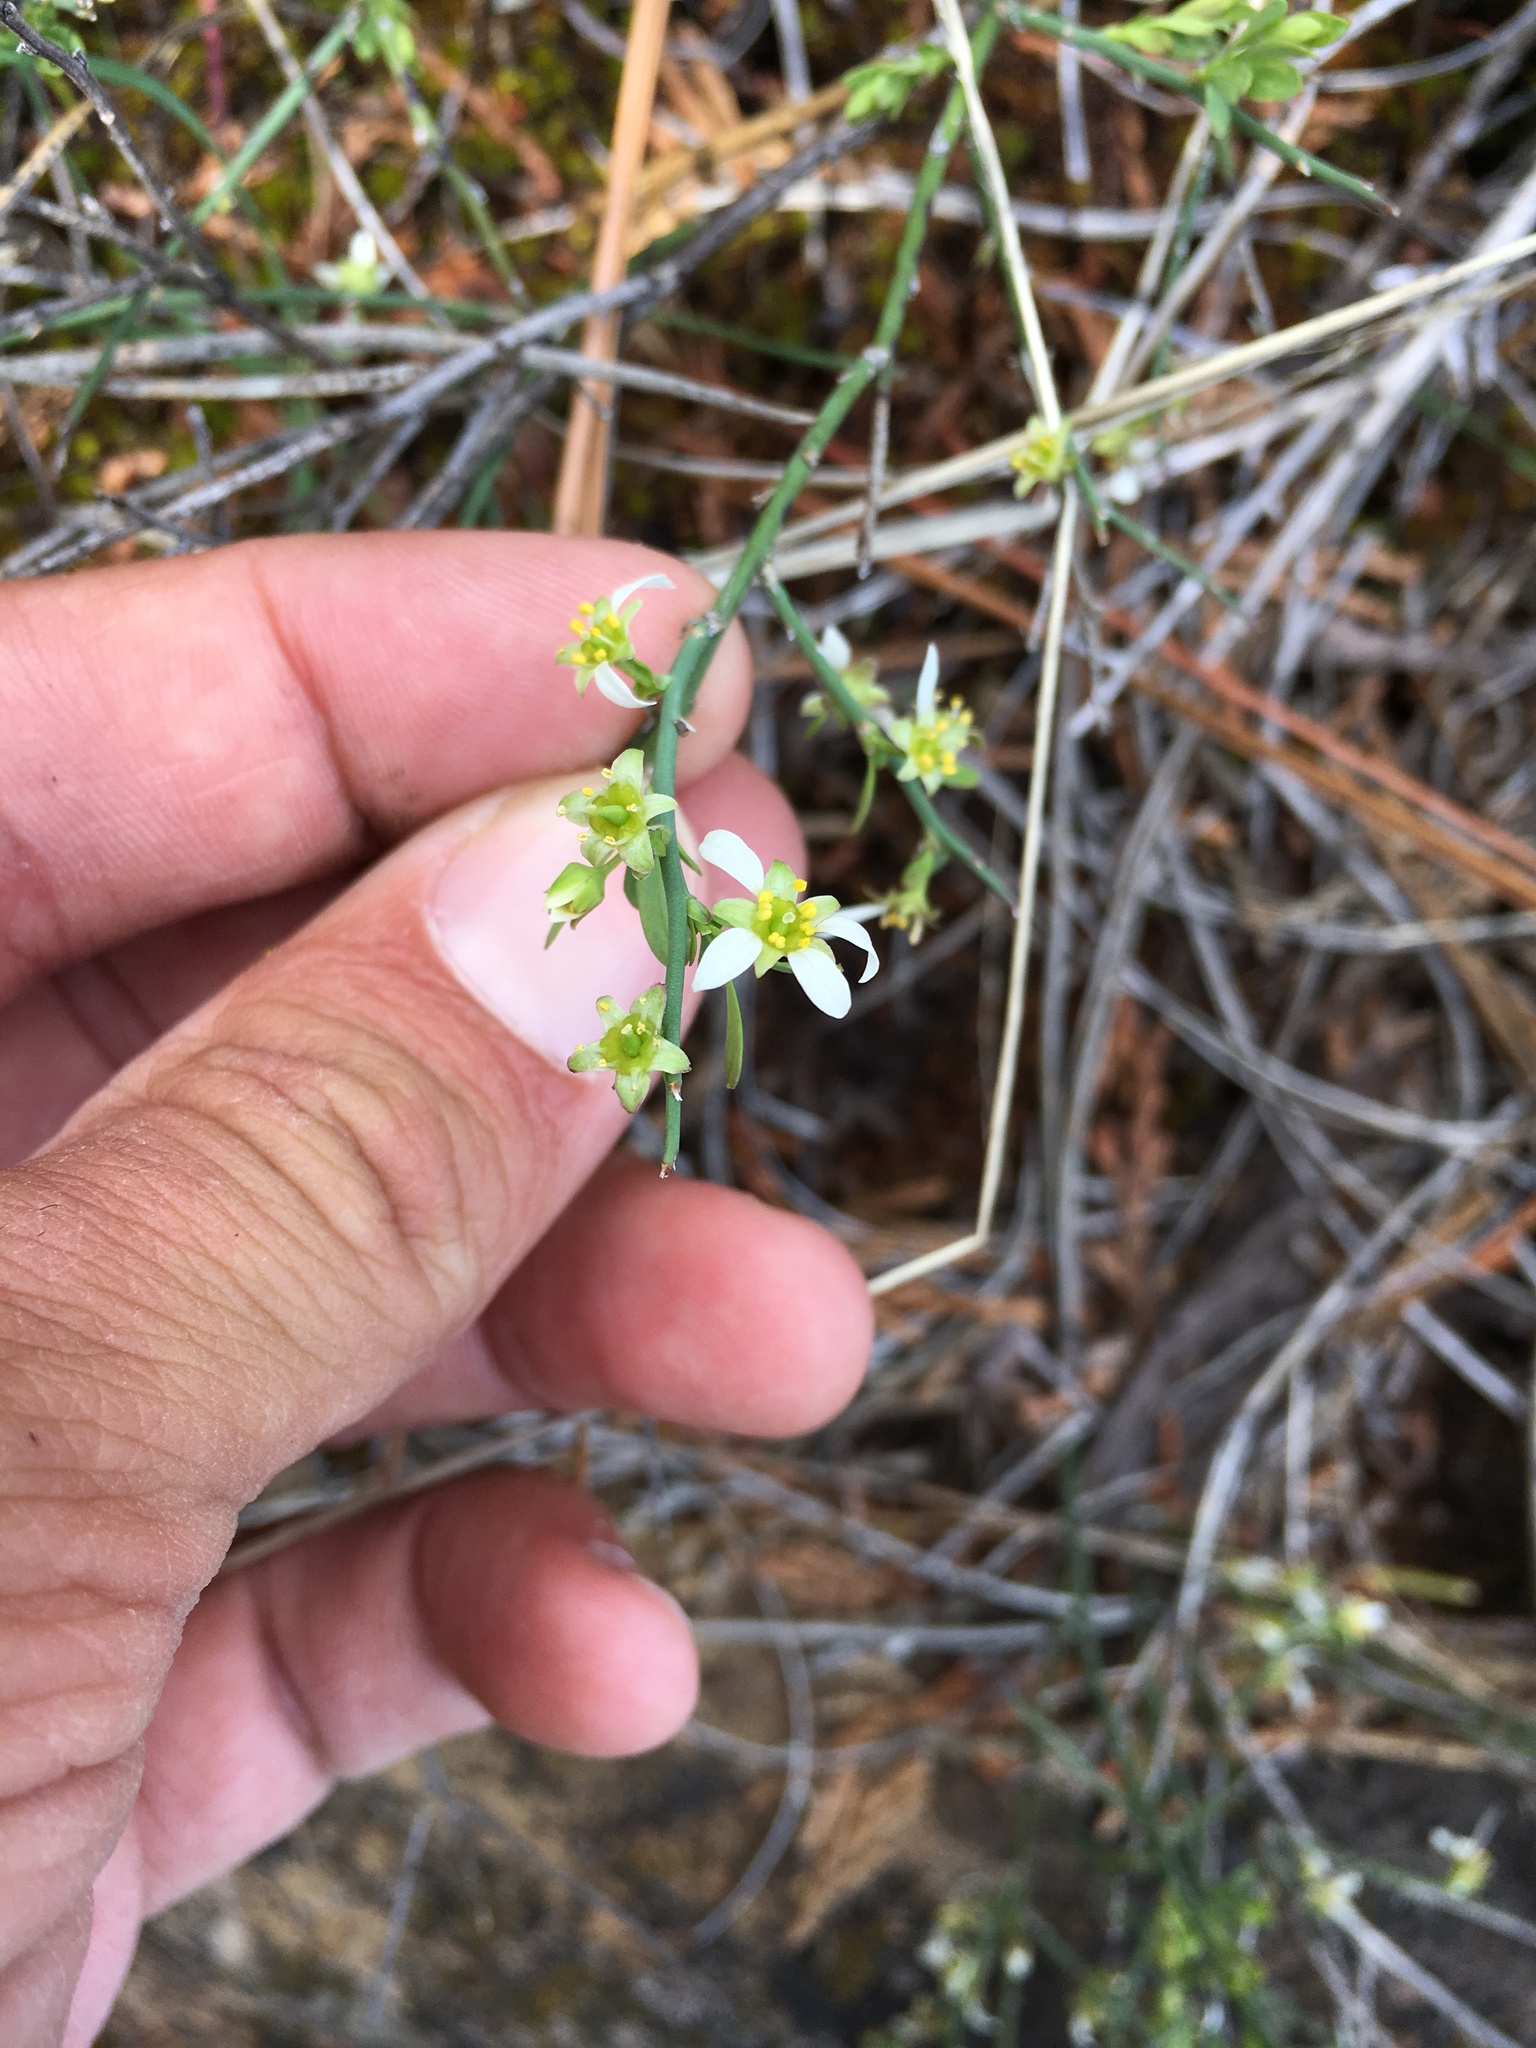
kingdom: Plantae
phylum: Tracheophyta
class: Magnoliopsida
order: Crossosomatales
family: Crossosomataceae
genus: Glossopetalon
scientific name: Glossopetalon spinescens
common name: Spring greasebush
